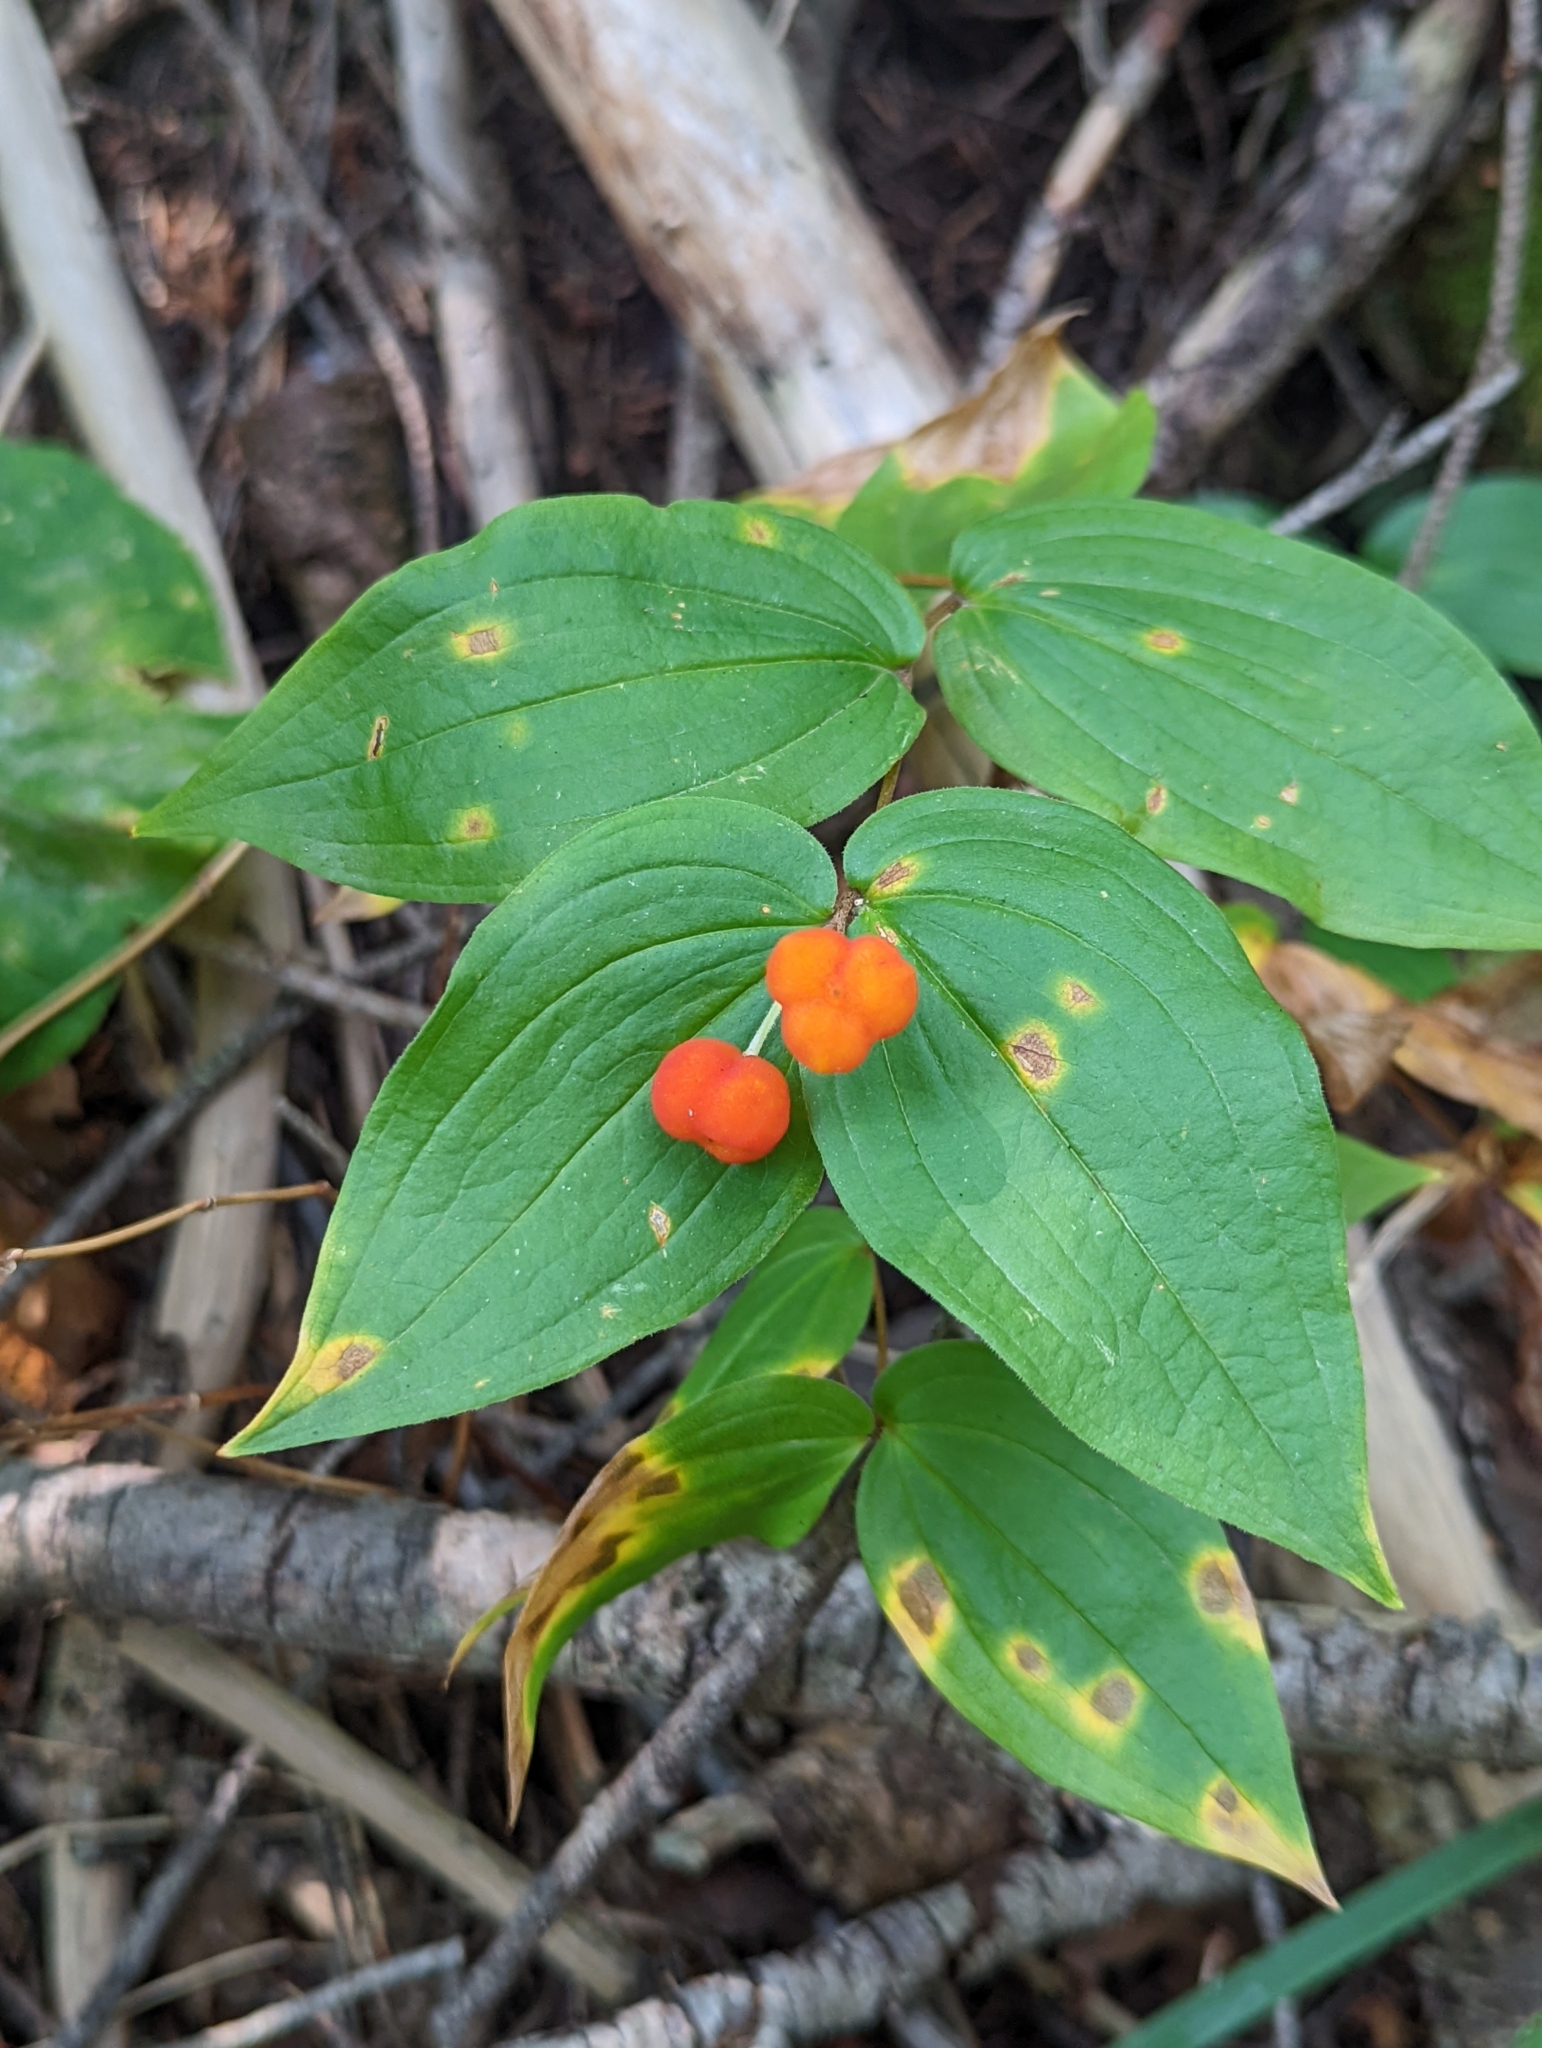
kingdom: Plantae
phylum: Tracheophyta
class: Liliopsida
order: Liliales
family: Liliaceae
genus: Prosartes
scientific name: Prosartes trachycarpa
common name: Rough-fruit fairy-bells
